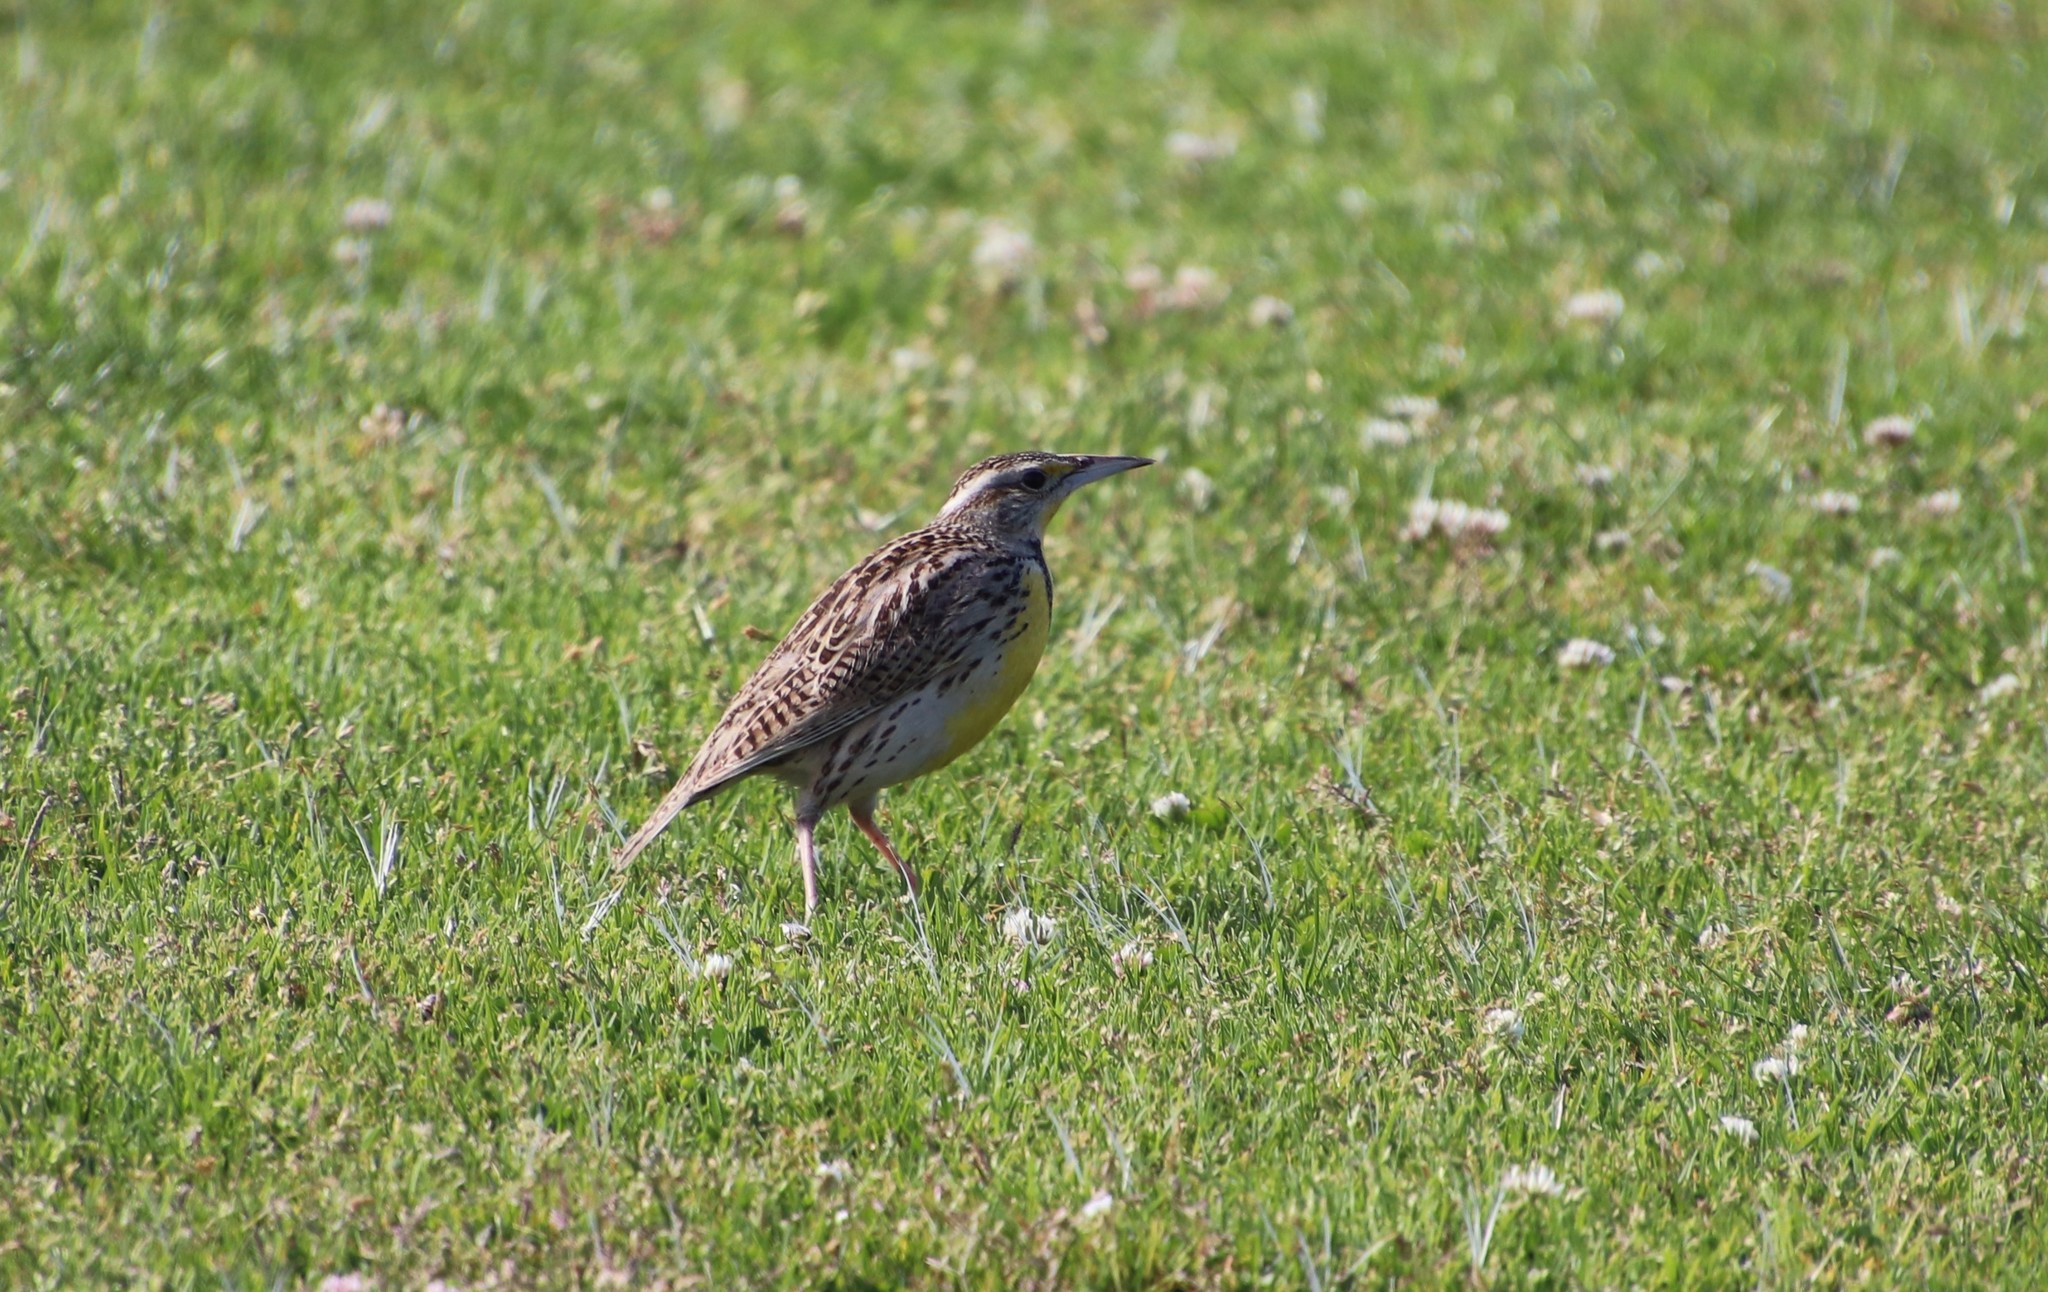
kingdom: Animalia
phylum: Chordata
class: Aves
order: Passeriformes
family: Icteridae
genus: Sturnella
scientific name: Sturnella neglecta
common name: Western meadowlark
